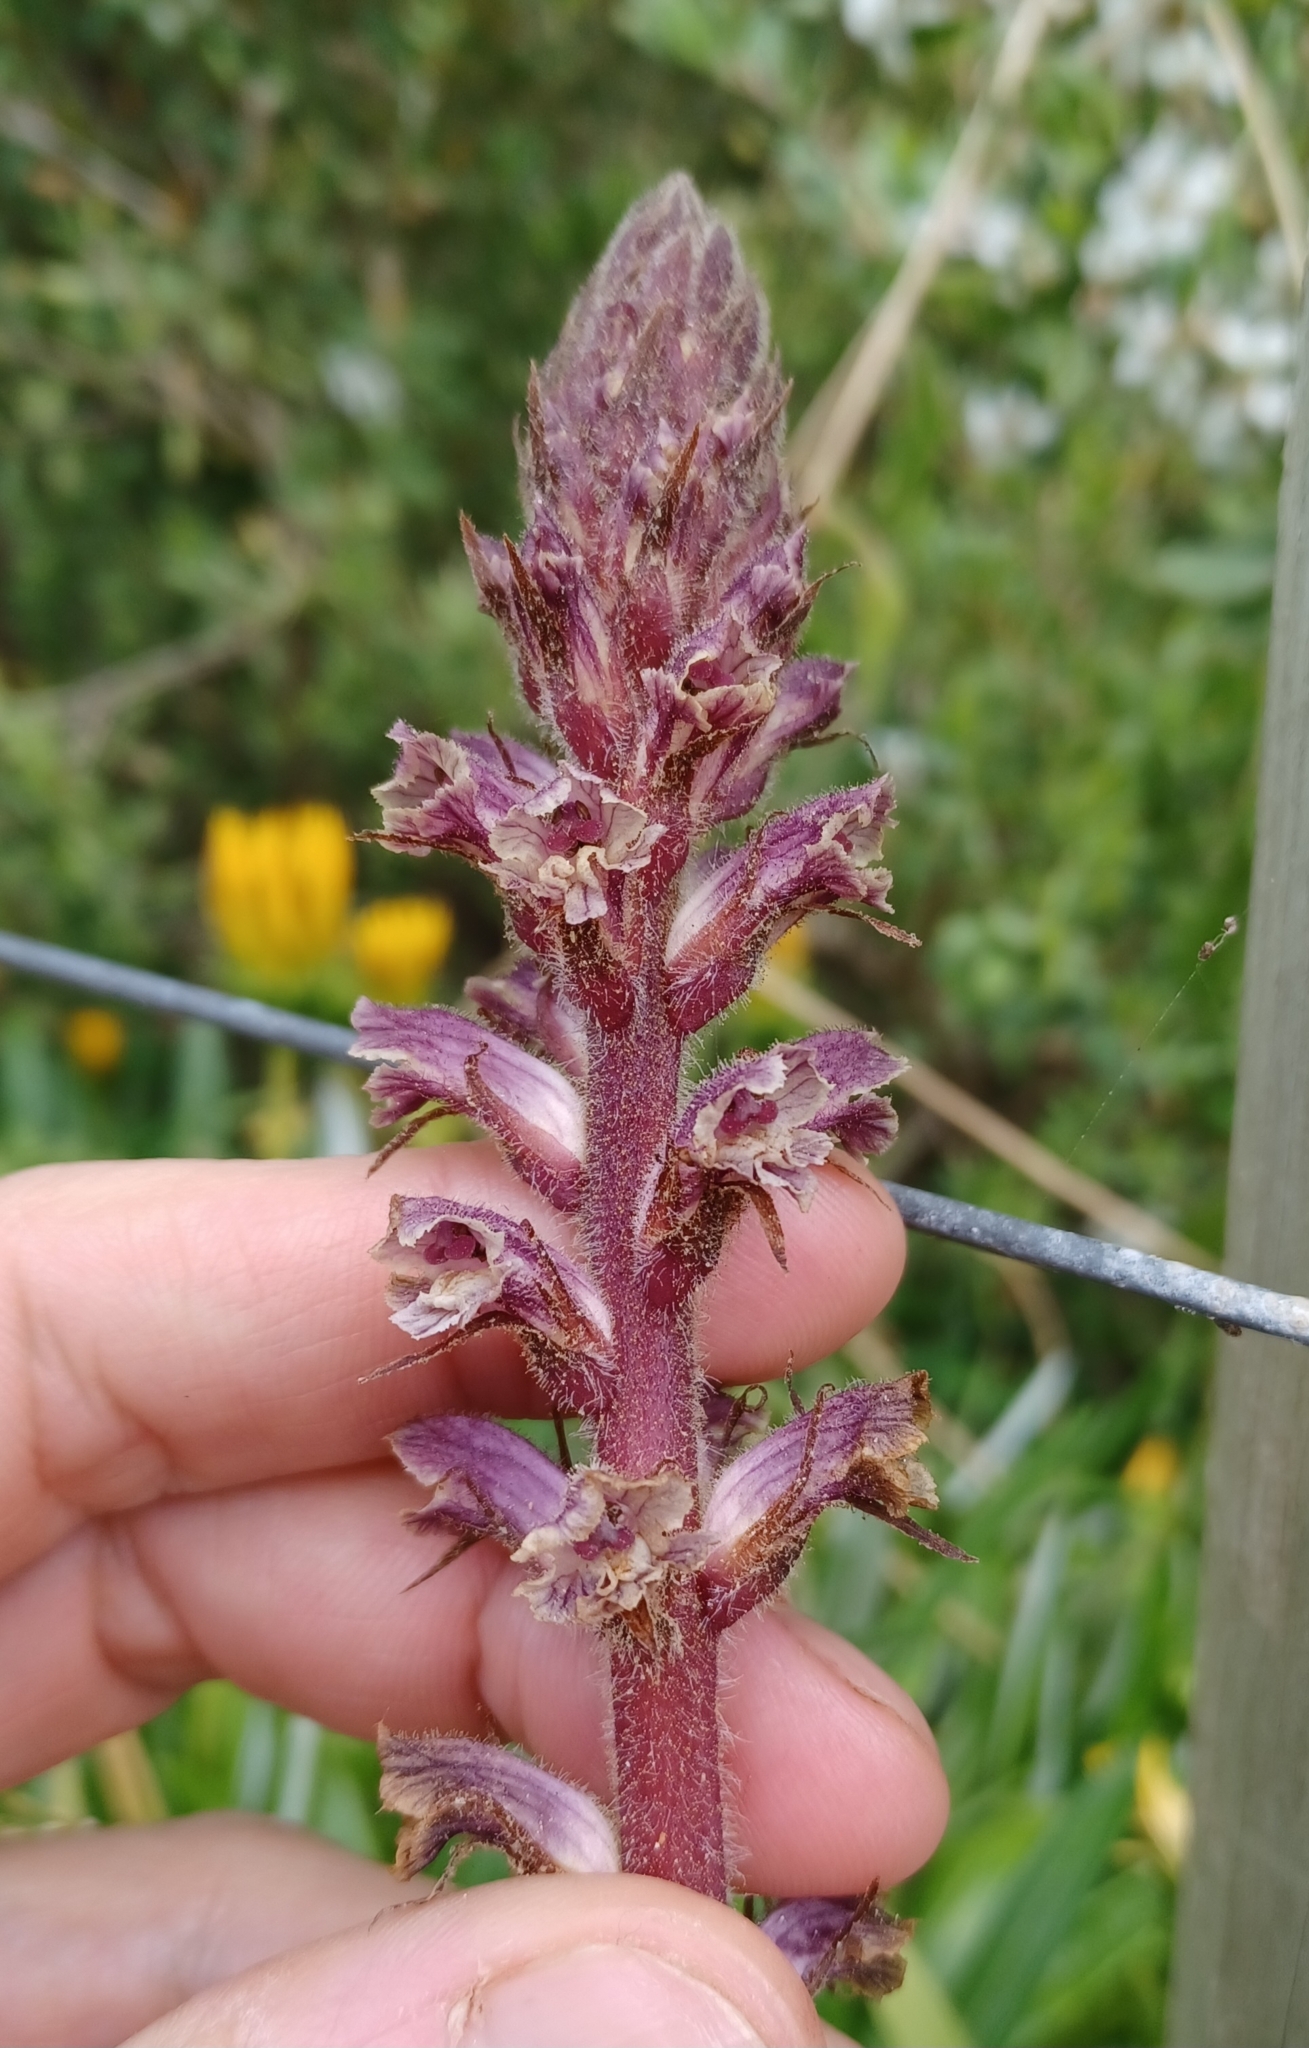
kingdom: Plantae
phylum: Tracheophyta
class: Magnoliopsida
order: Lamiales
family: Orobanchaceae
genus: Orobanche
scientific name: Orobanche minor
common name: Common broomrape
